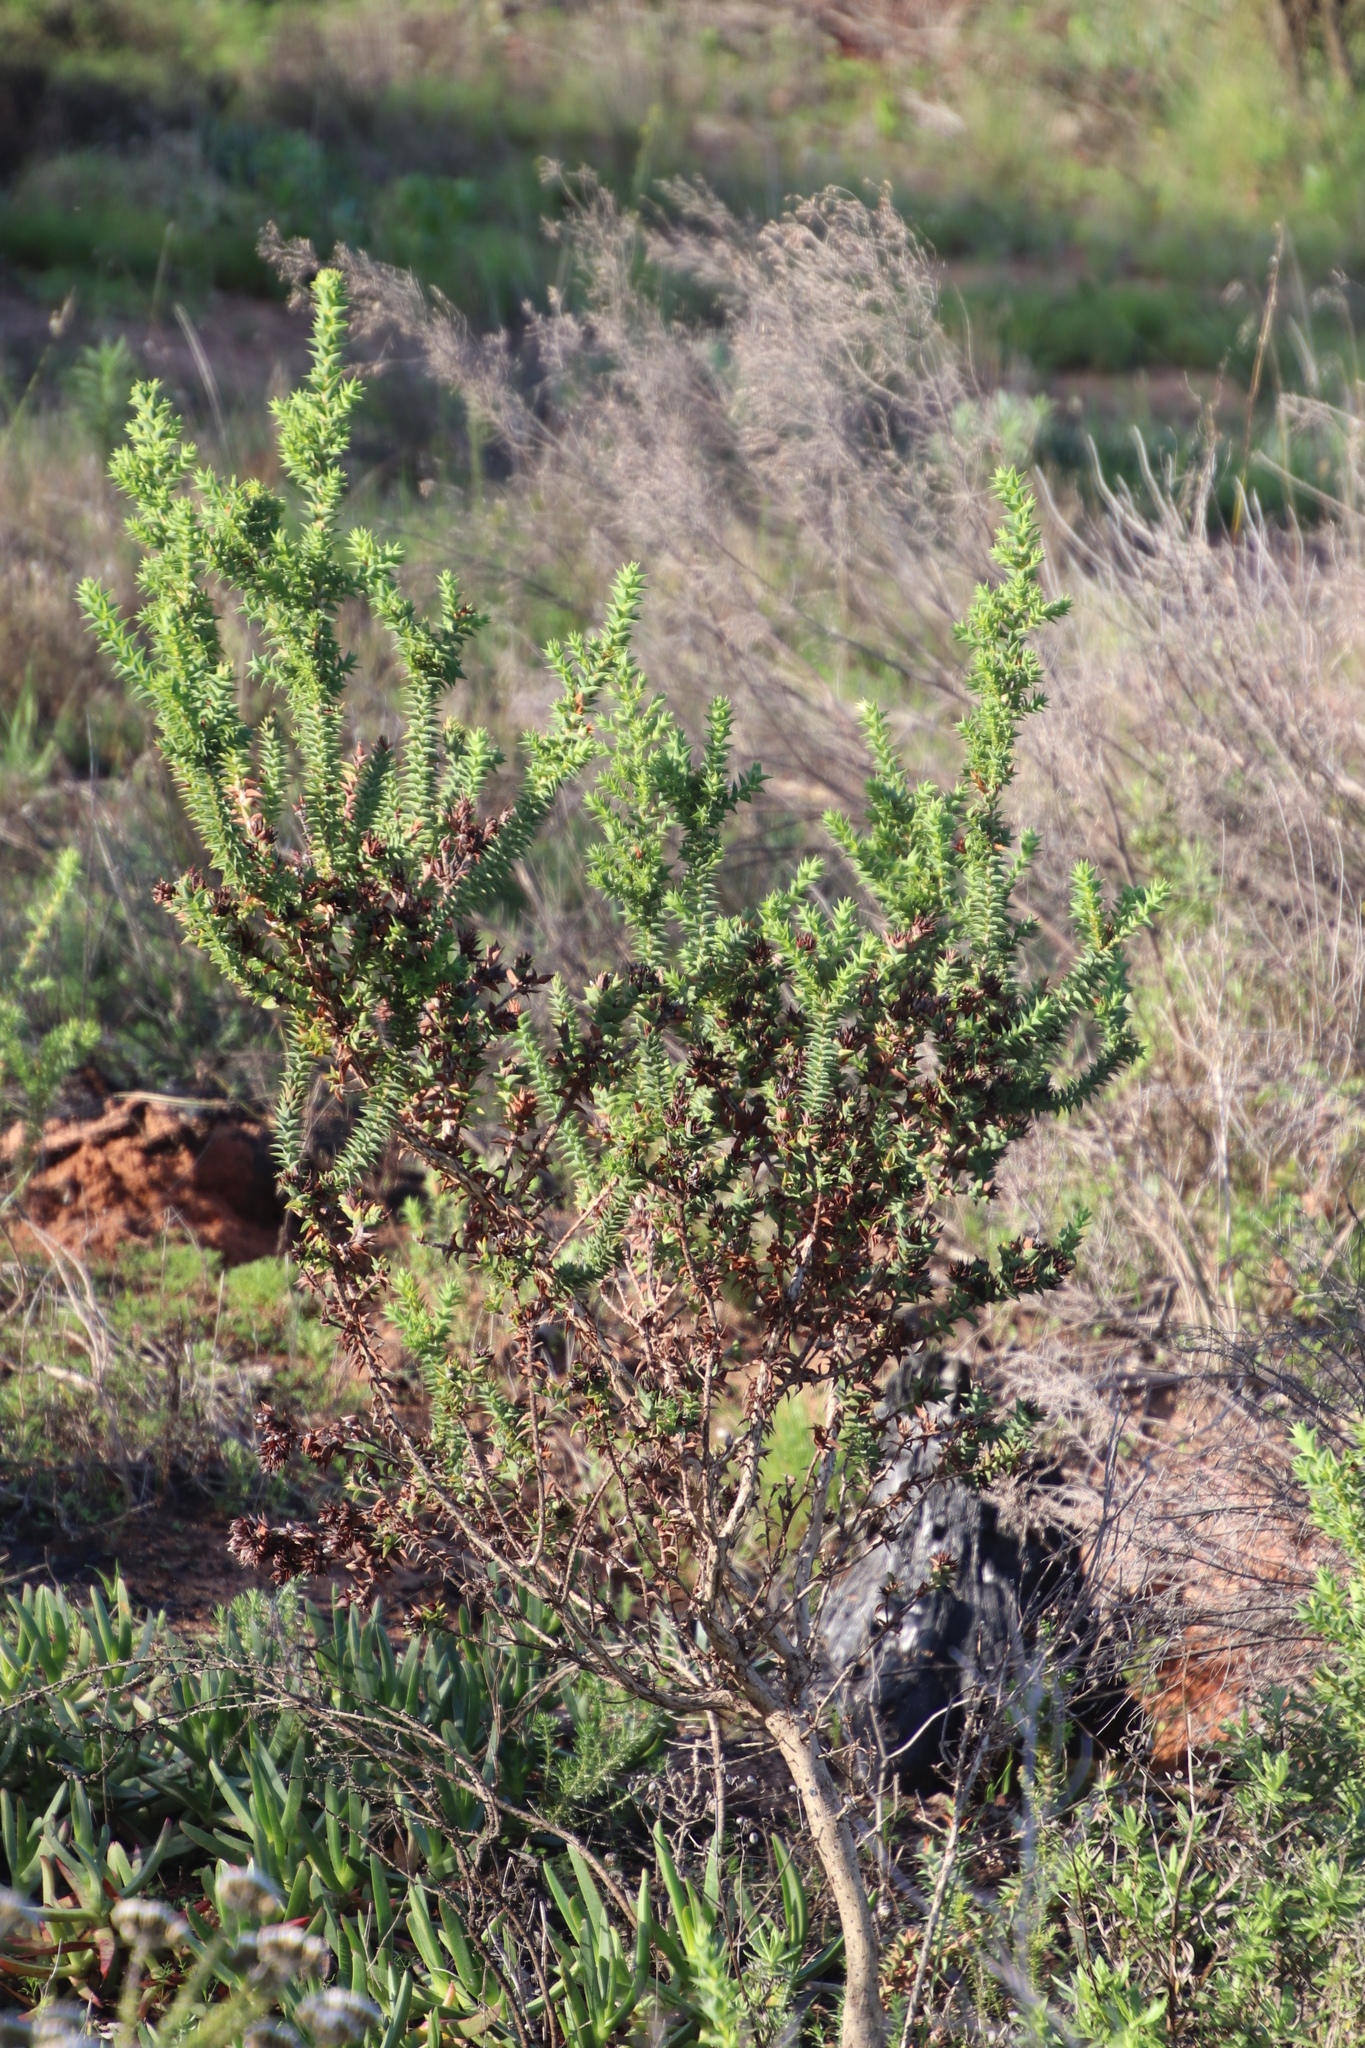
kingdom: Plantae
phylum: Tracheophyta
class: Magnoliopsida
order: Fabales
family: Fabaceae
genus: Aspalathus
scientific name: Aspalathus cordata
